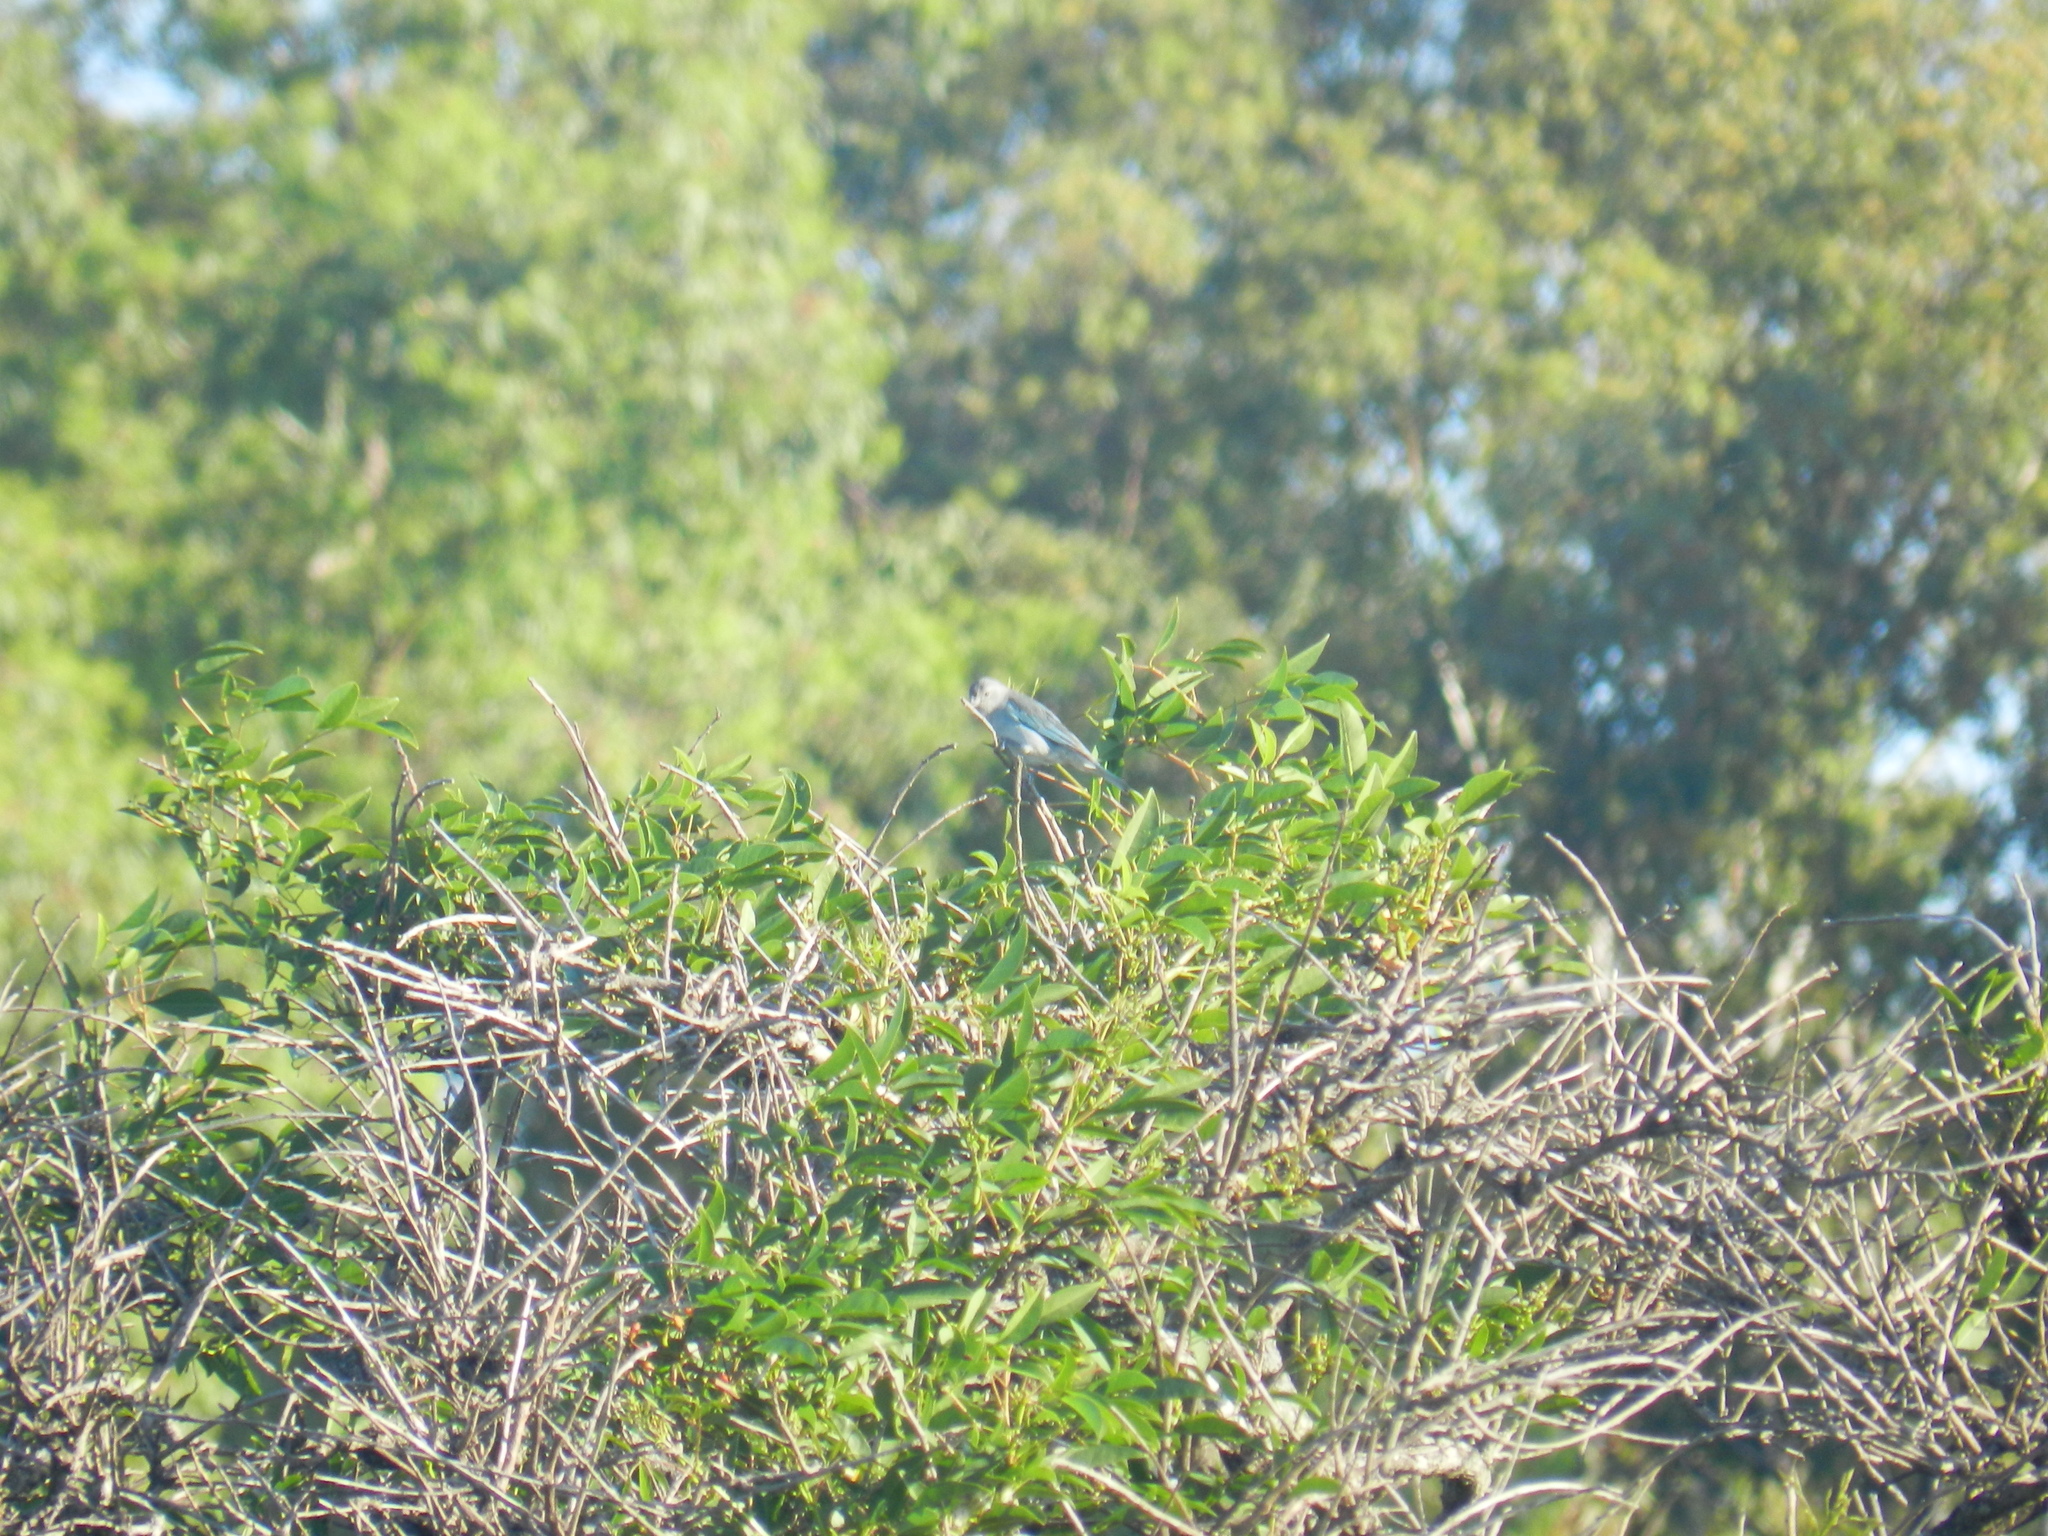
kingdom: Animalia
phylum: Chordata
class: Aves
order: Passeriformes
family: Thraupidae
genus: Thraupis
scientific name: Thraupis sayaca
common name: Sayaca tanager
